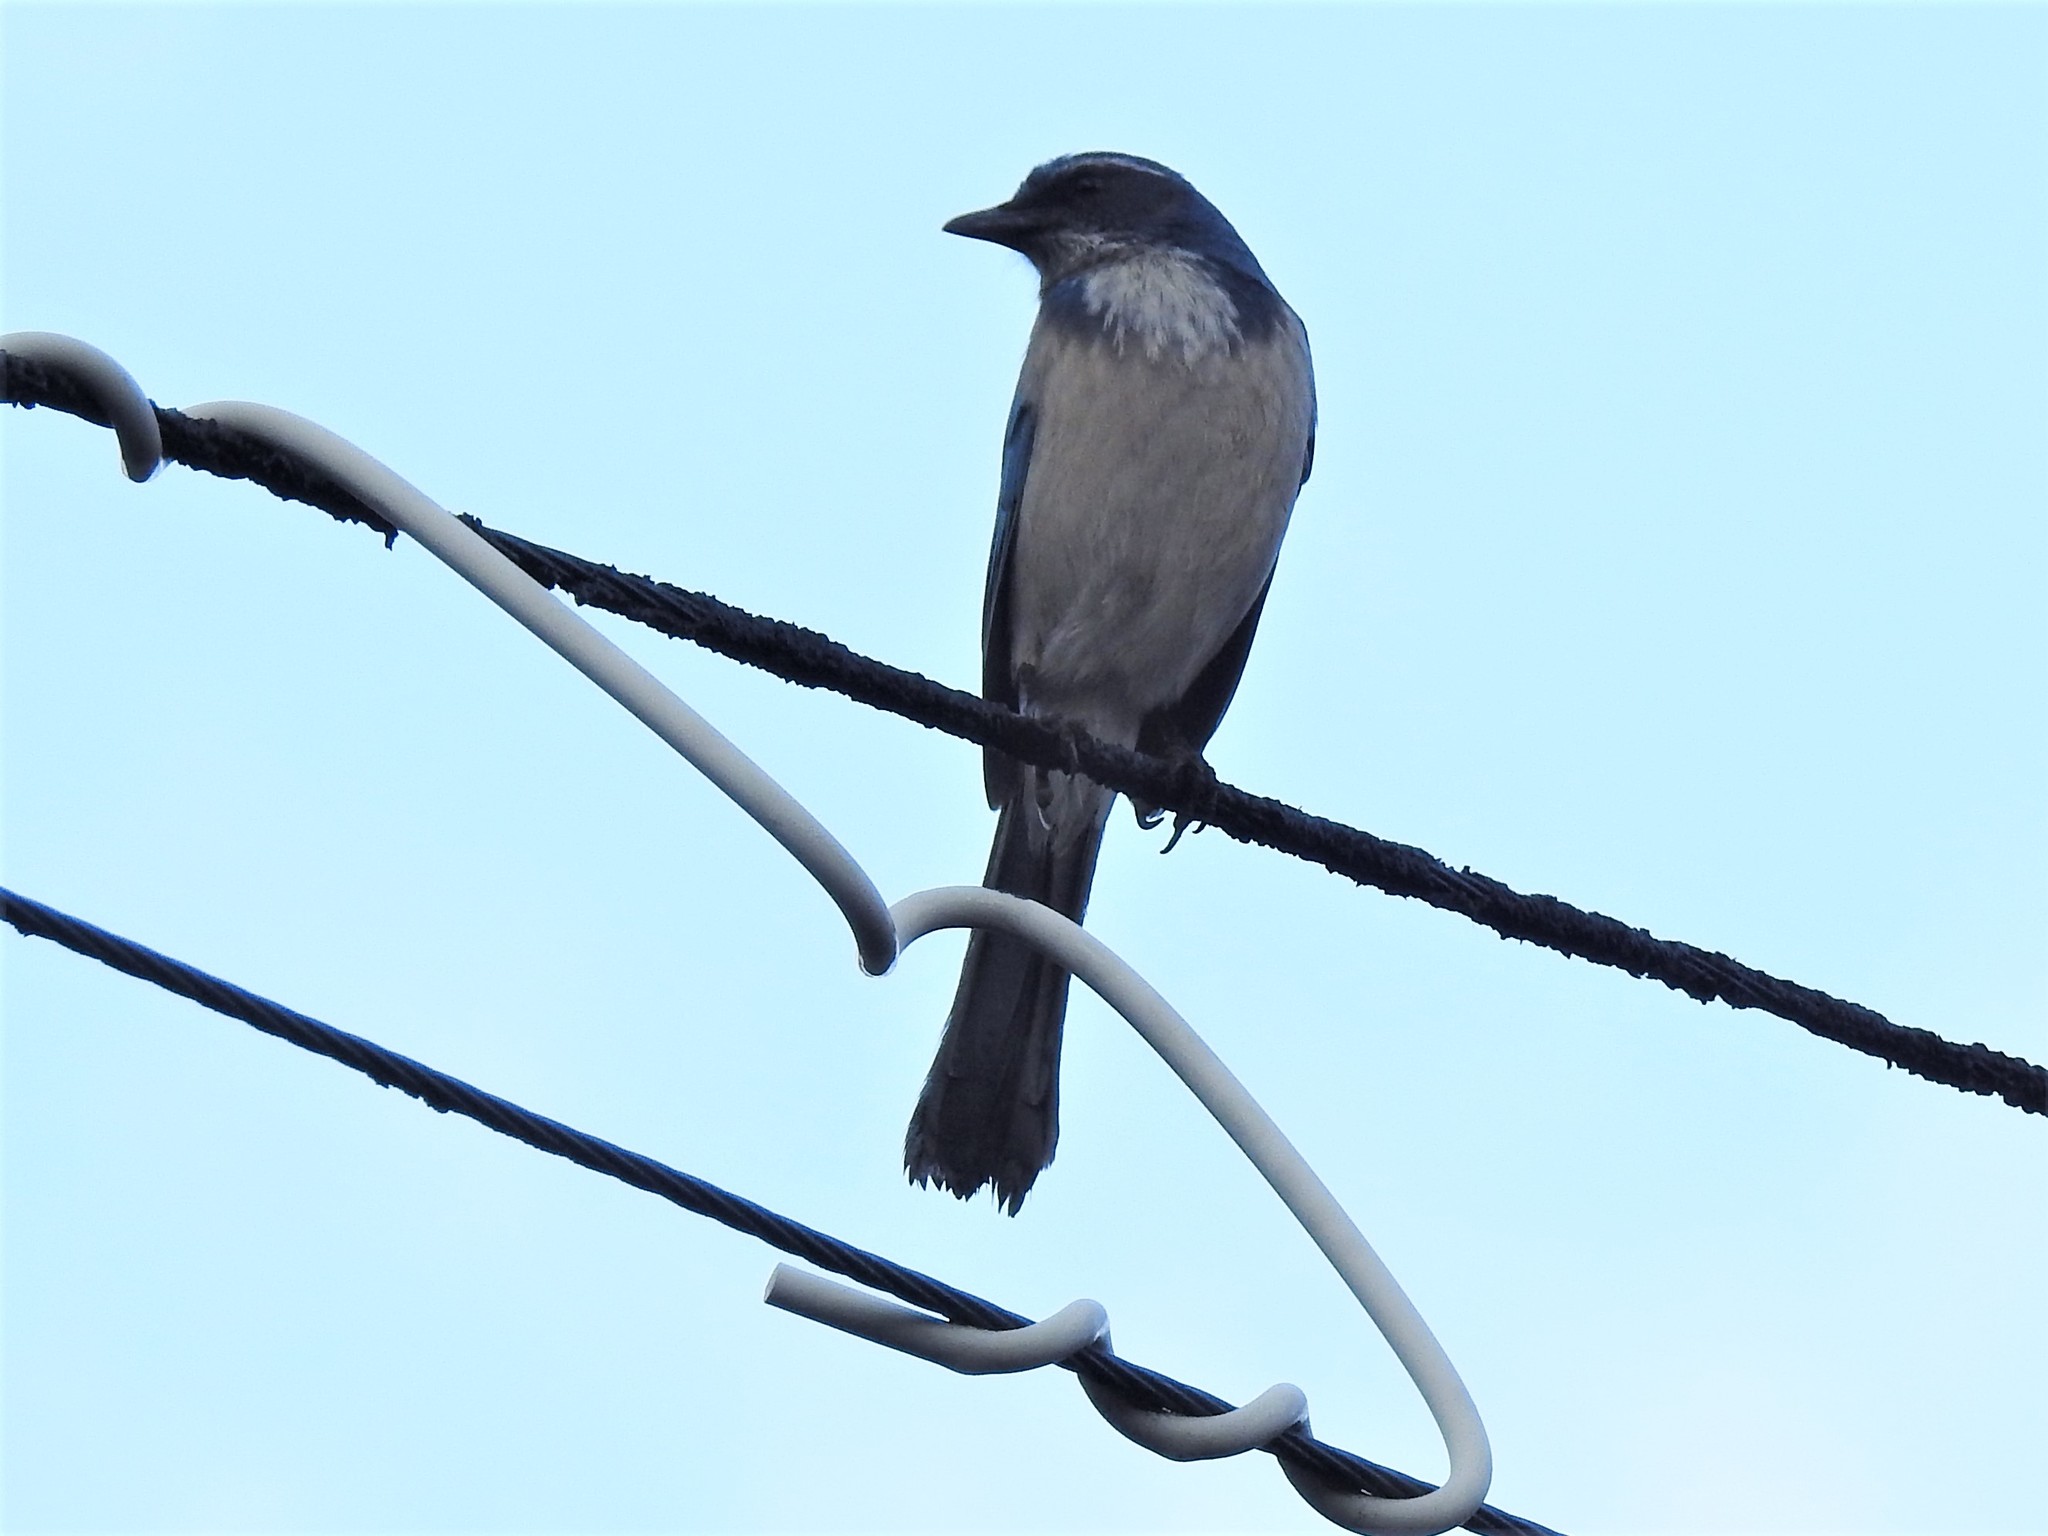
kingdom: Animalia
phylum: Chordata
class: Aves
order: Passeriformes
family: Corvidae
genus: Aphelocoma
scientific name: Aphelocoma californica
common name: California scrub-jay
